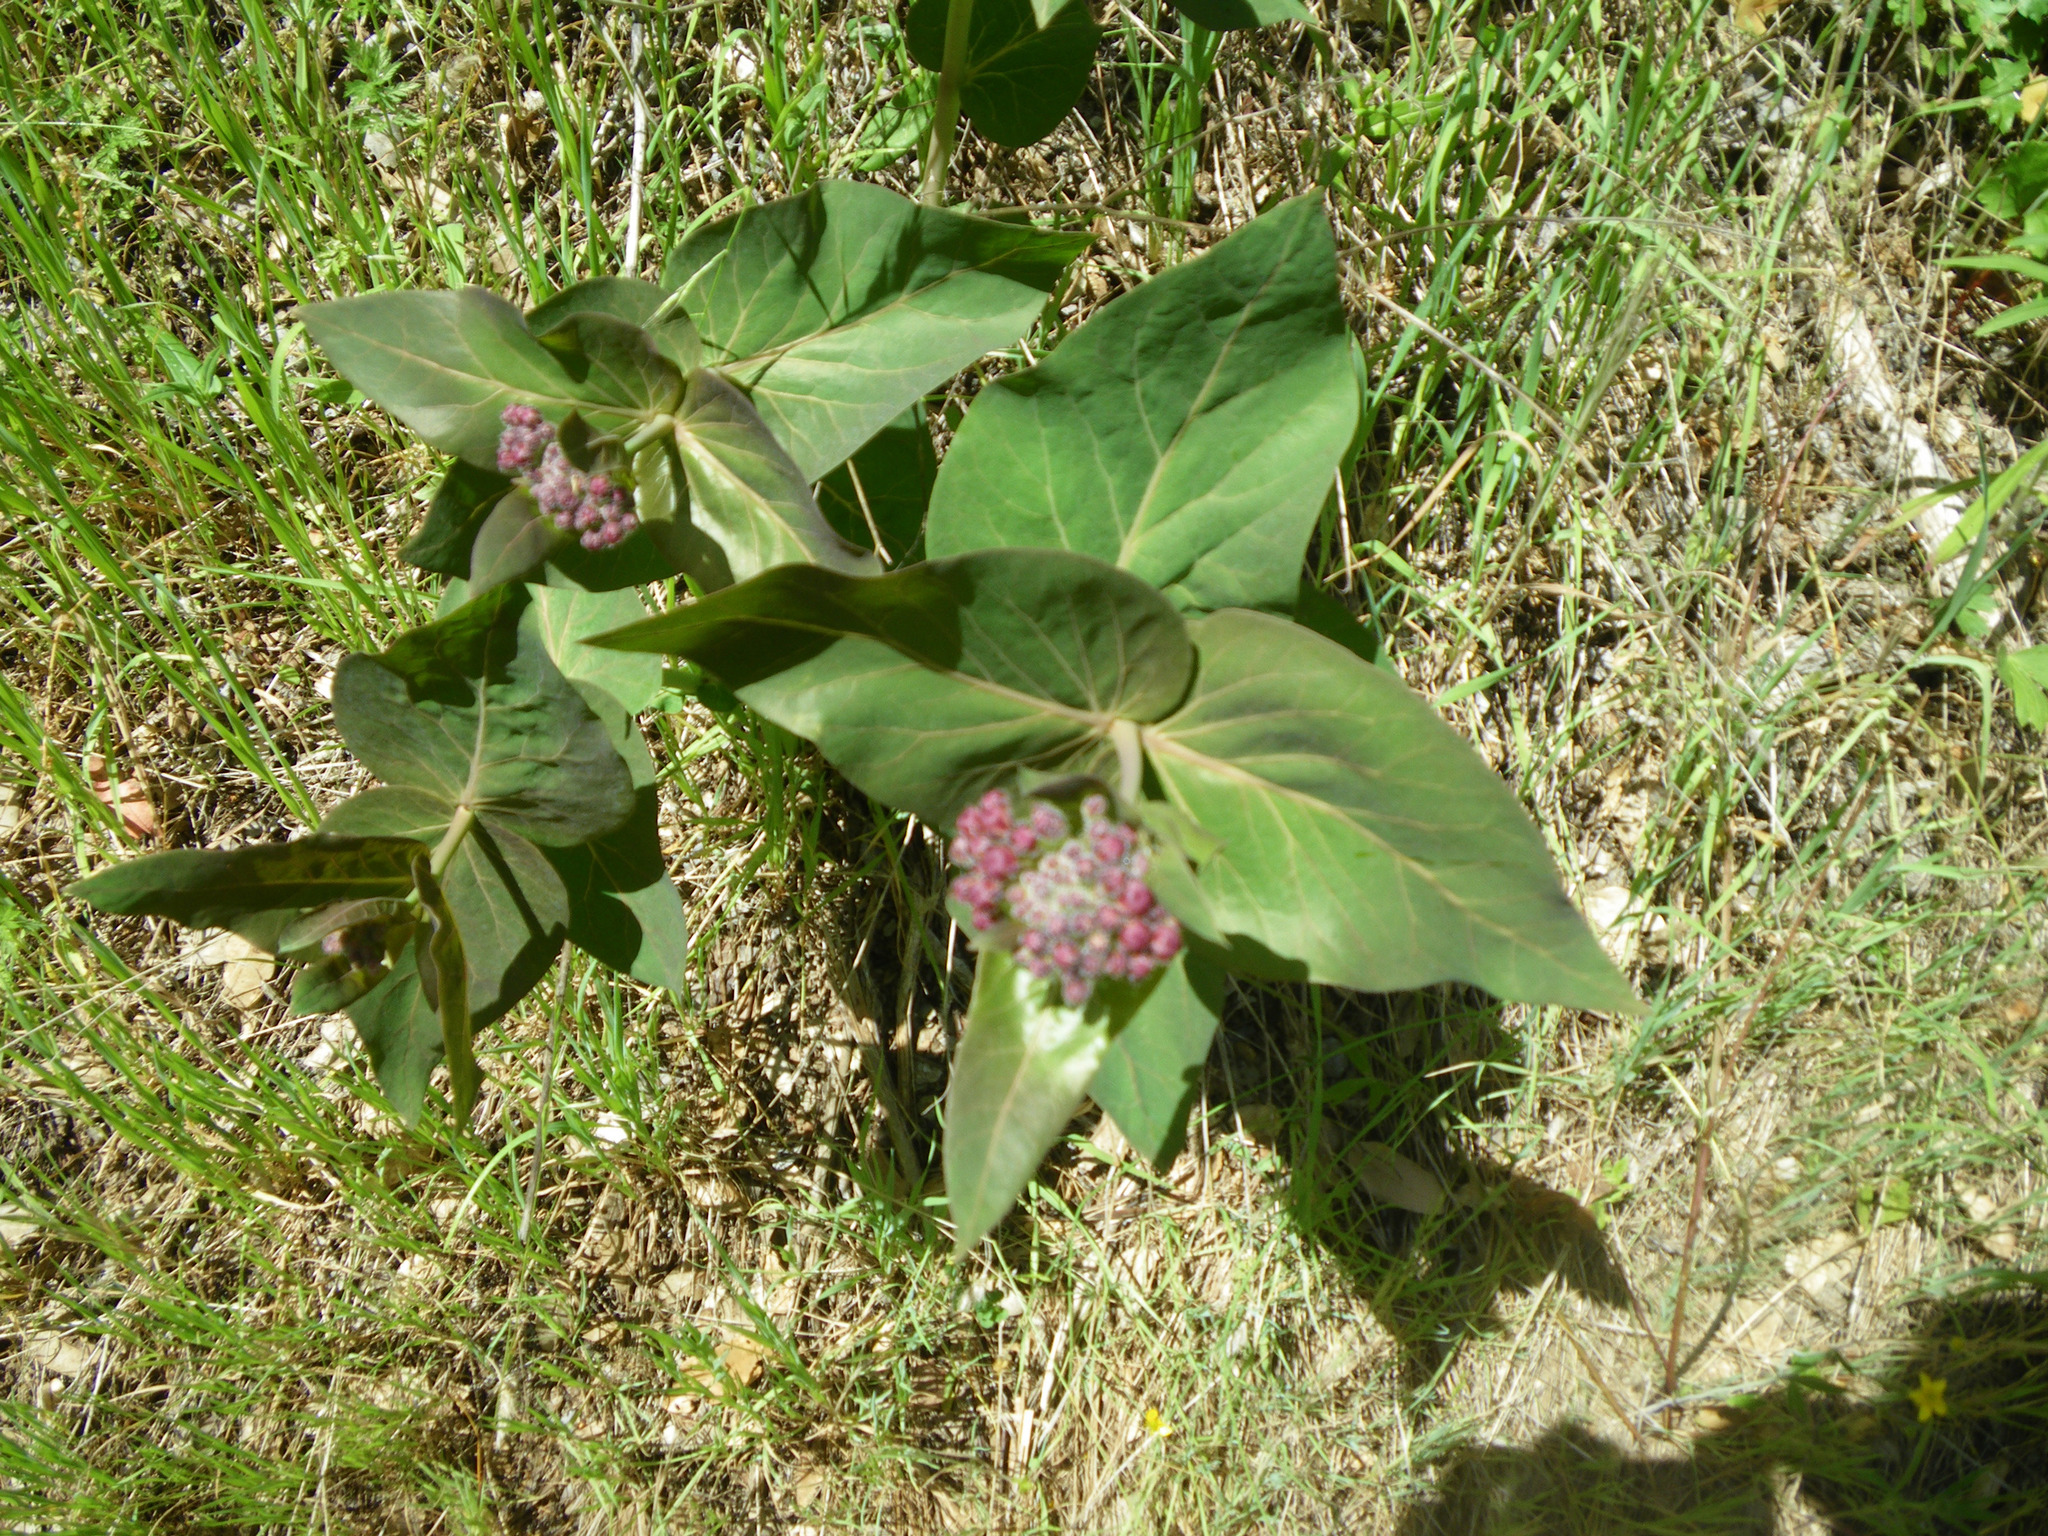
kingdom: Plantae
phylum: Tracheophyta
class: Magnoliopsida
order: Gentianales
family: Apocynaceae
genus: Asclepias
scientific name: Asclepias cordifolia
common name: Purple milkweed
